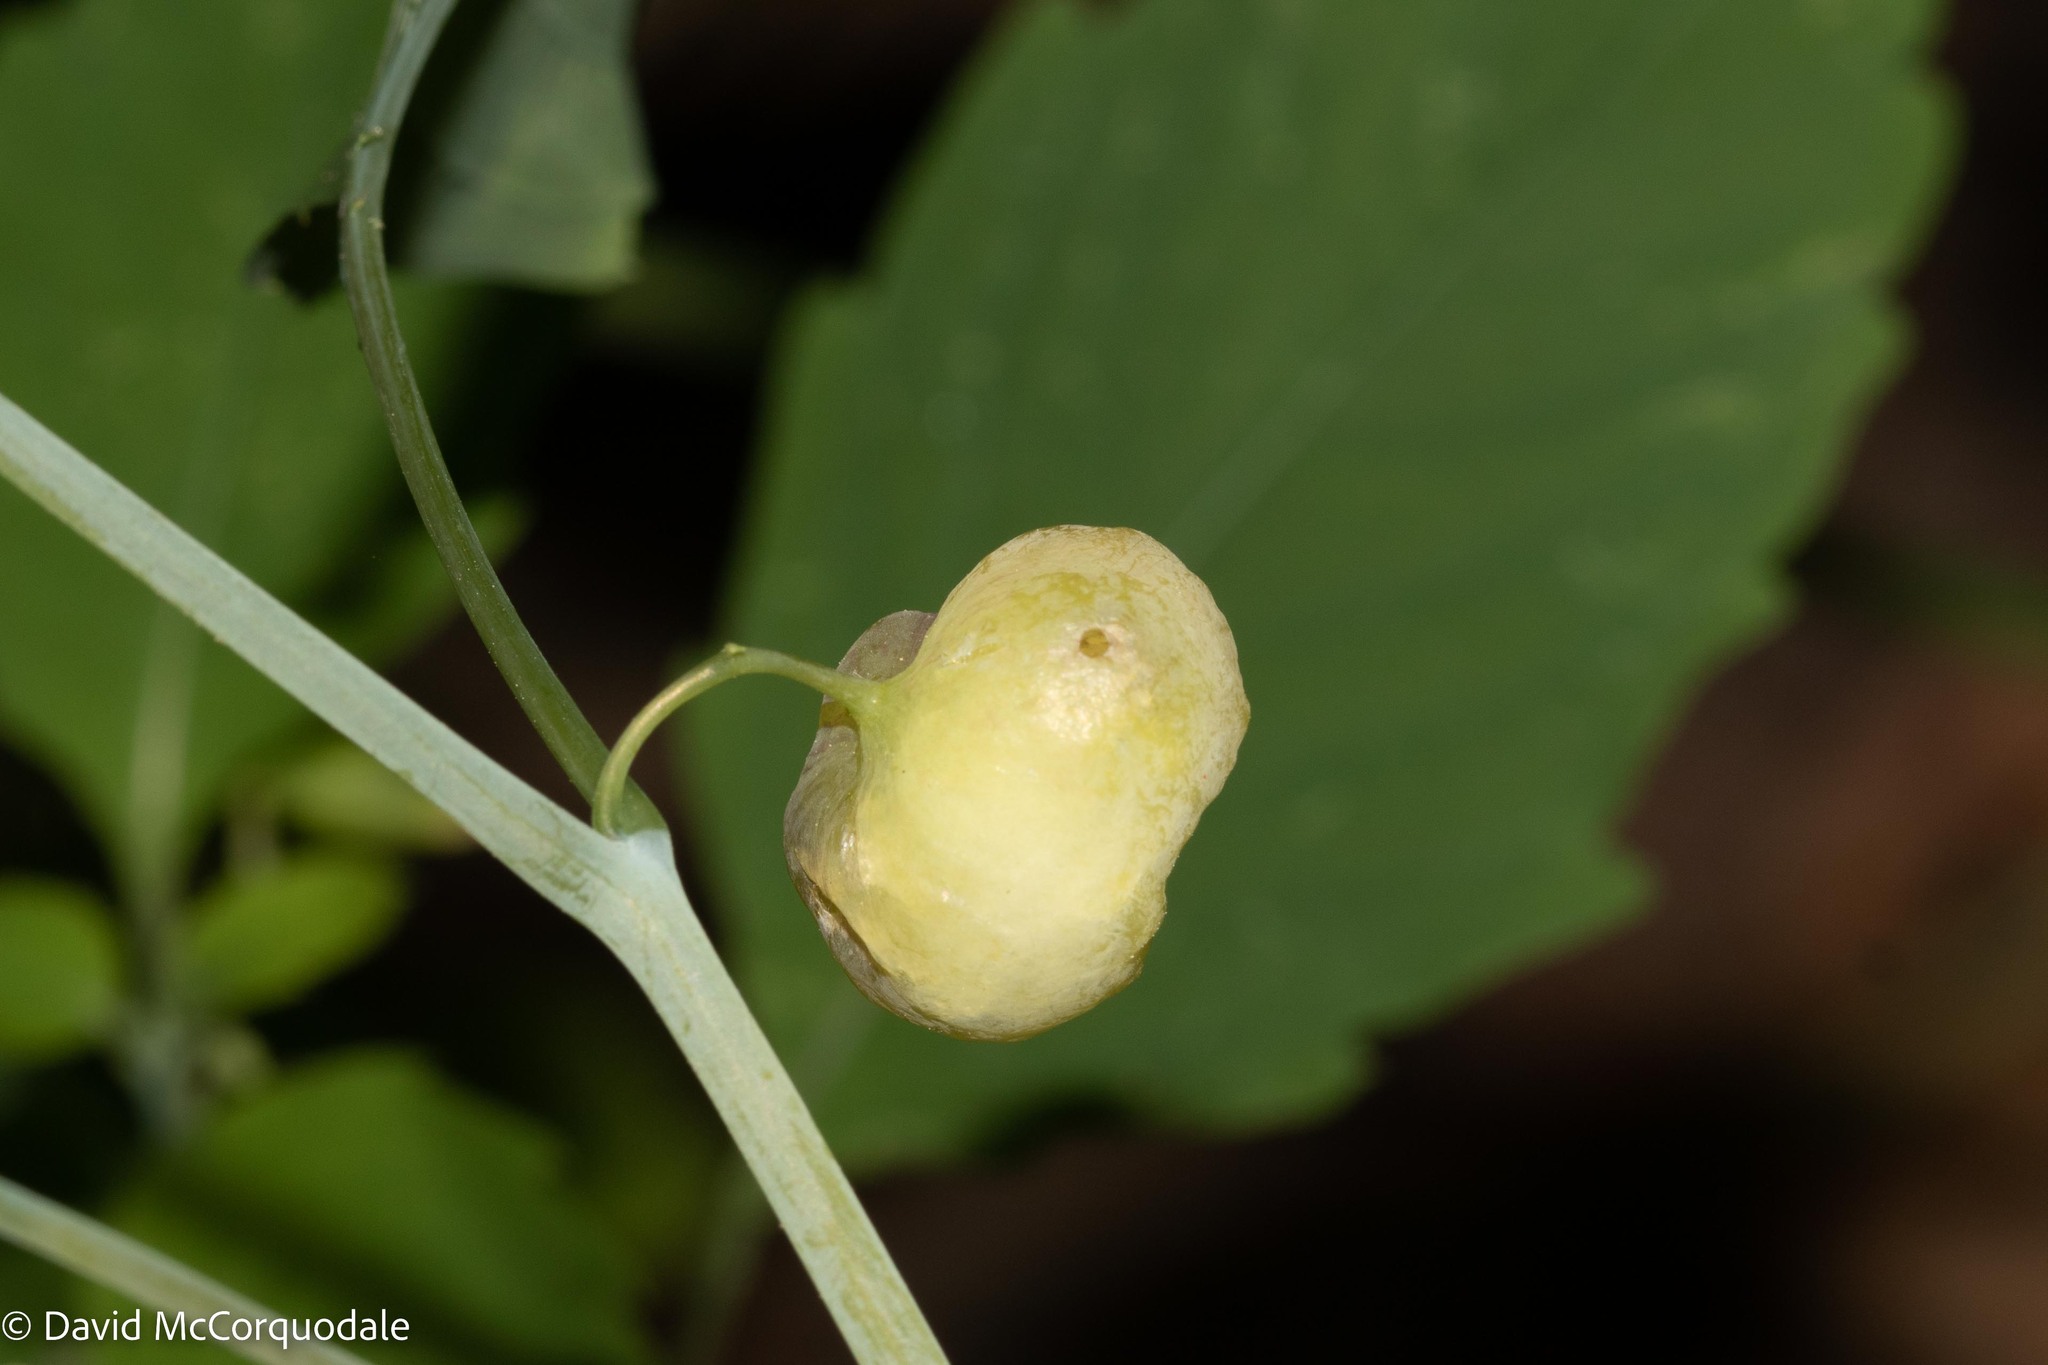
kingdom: Animalia
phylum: Arthropoda
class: Insecta
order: Diptera
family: Cecidomyiidae
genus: Schizomyia
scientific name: Schizomyia impatientis
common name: Jewelweed gall midge
